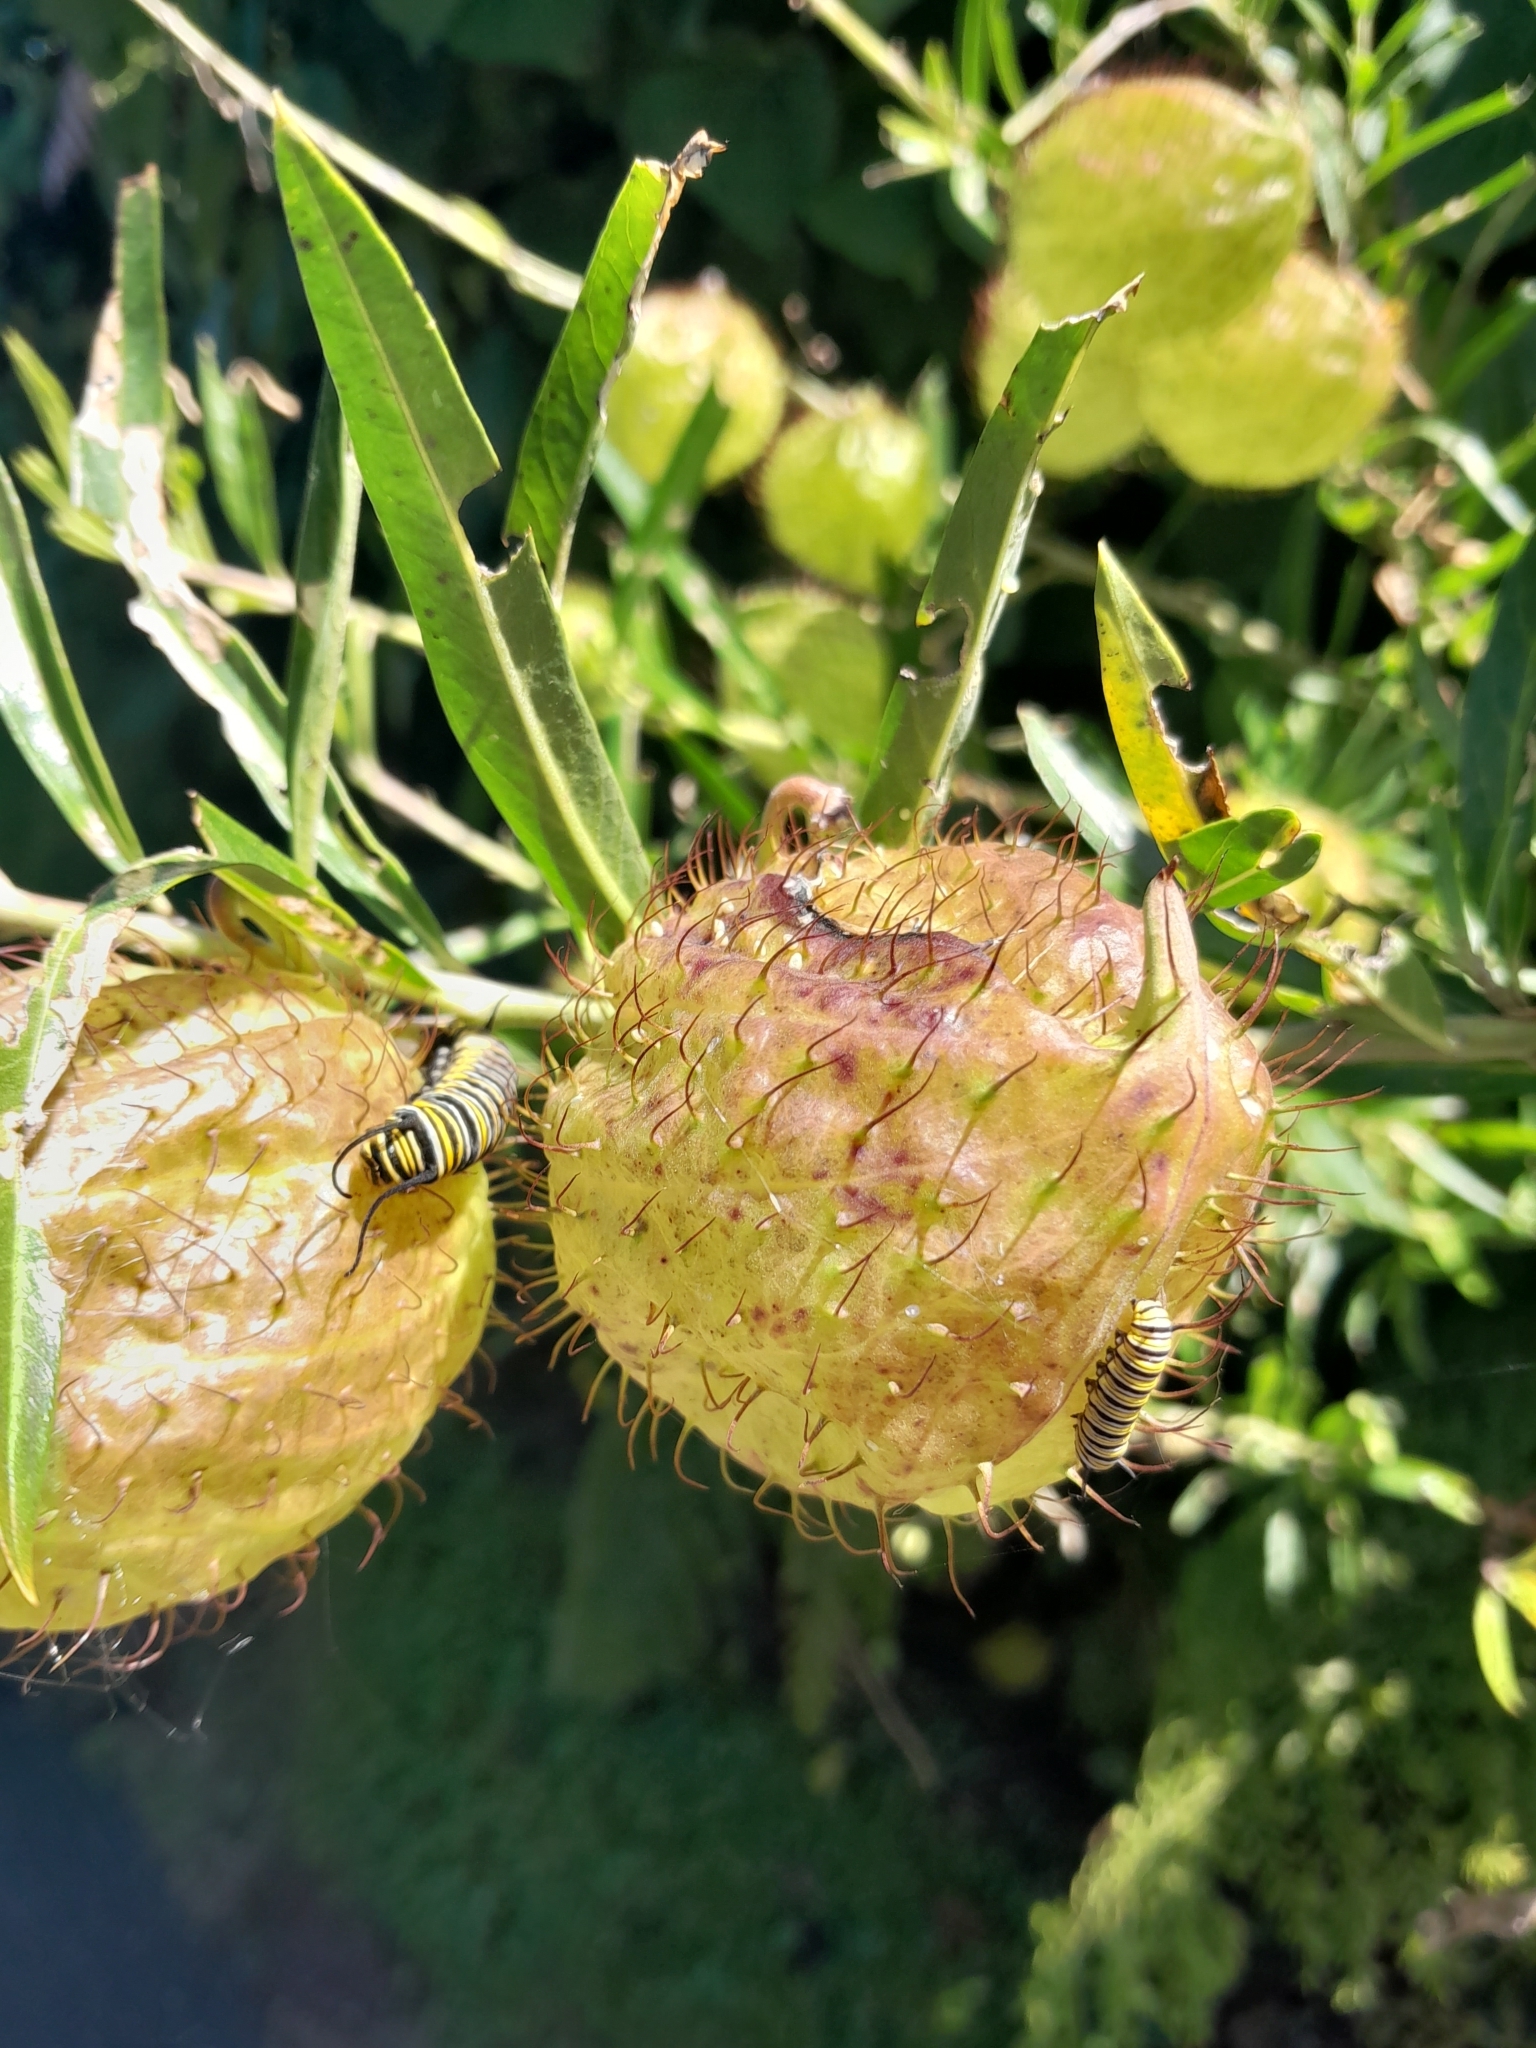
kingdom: Animalia
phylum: Arthropoda
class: Insecta
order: Lepidoptera
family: Nymphalidae
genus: Danaus
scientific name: Danaus plexippus
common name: Monarch
